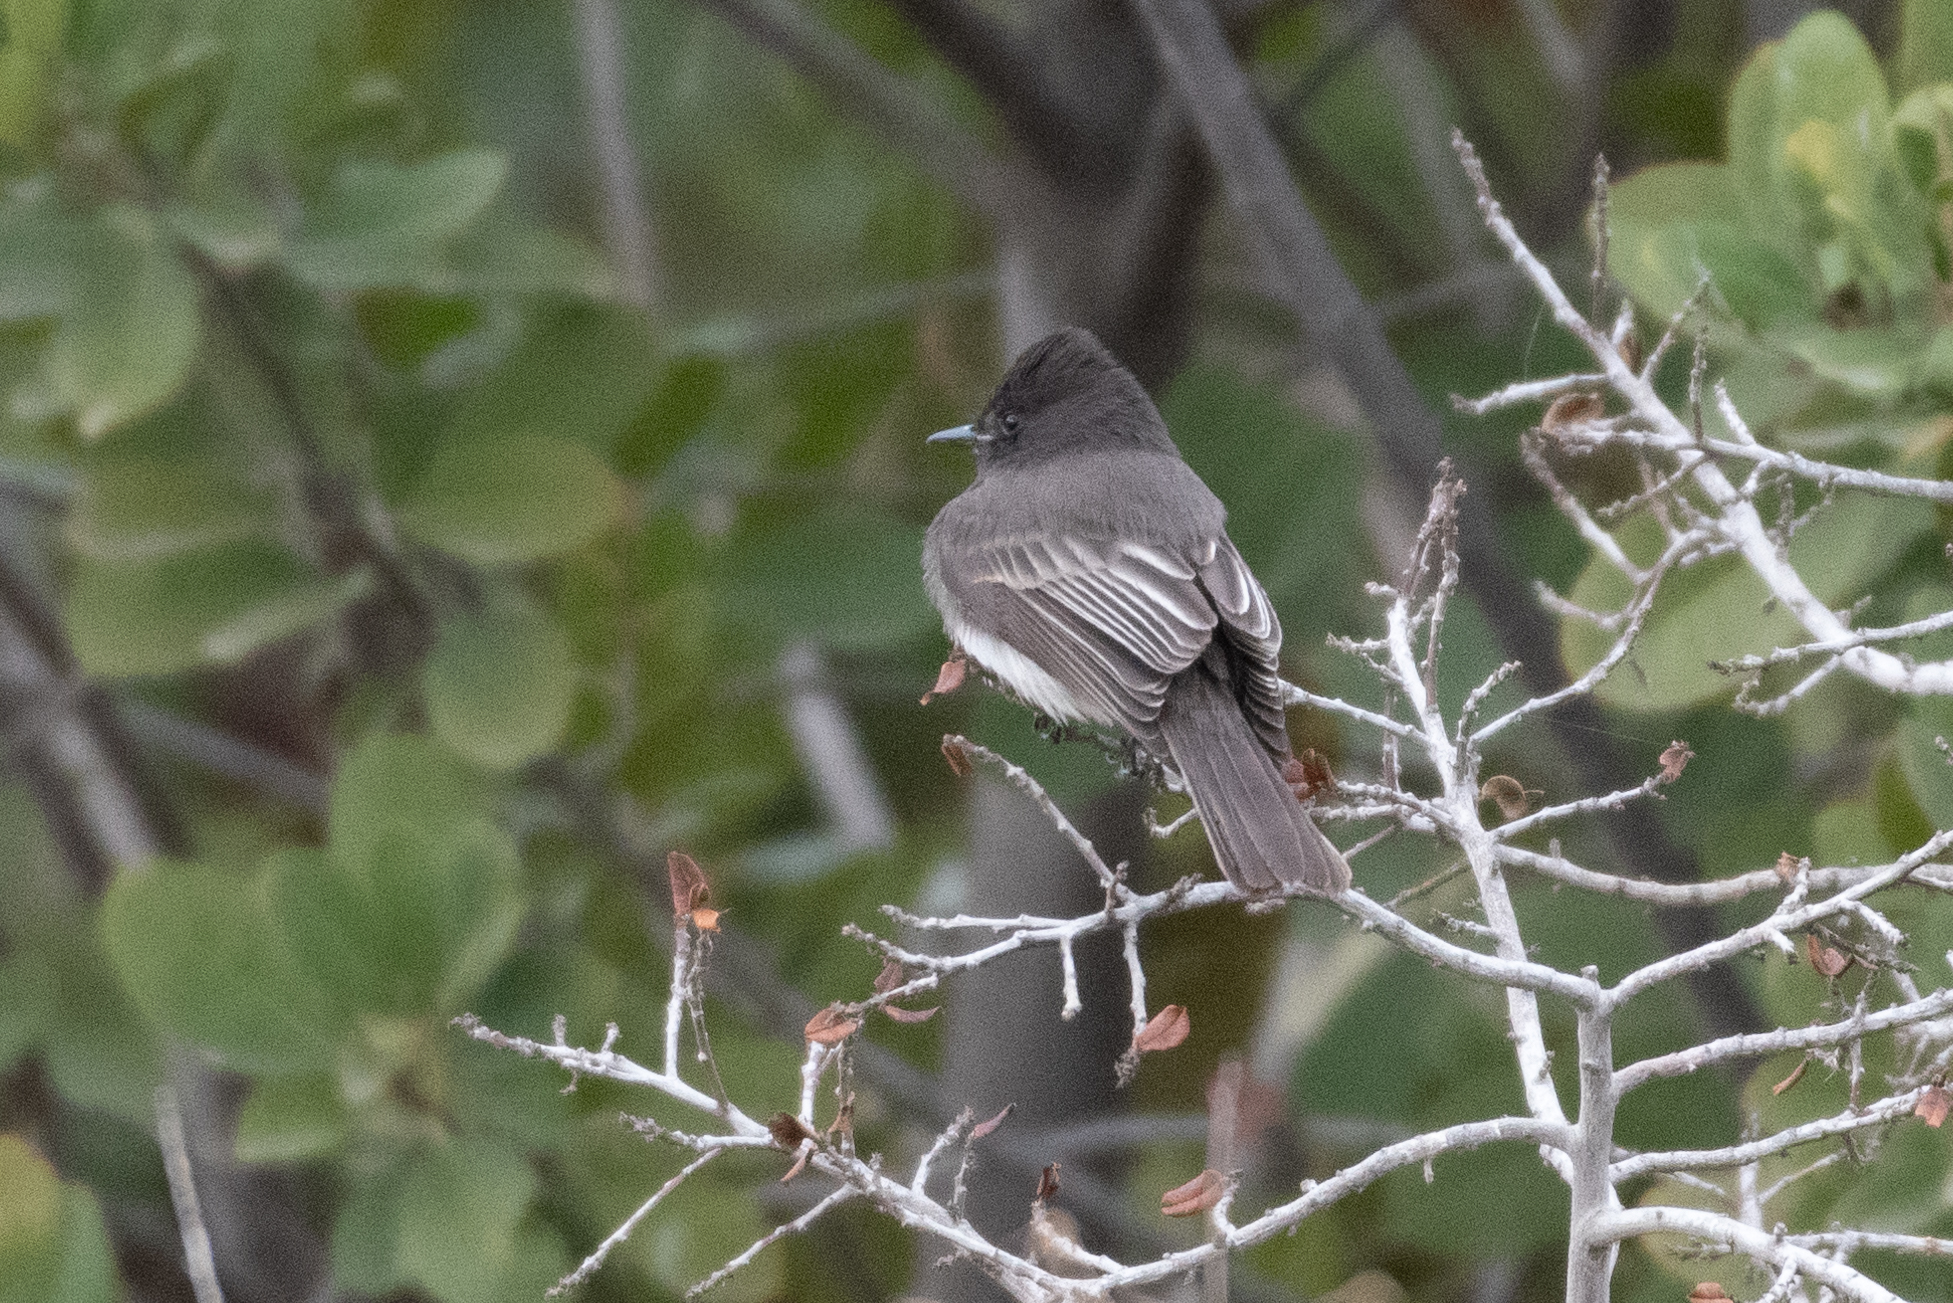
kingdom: Animalia
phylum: Chordata
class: Aves
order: Passeriformes
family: Tyrannidae
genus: Sayornis
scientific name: Sayornis nigricans
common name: Black phoebe
